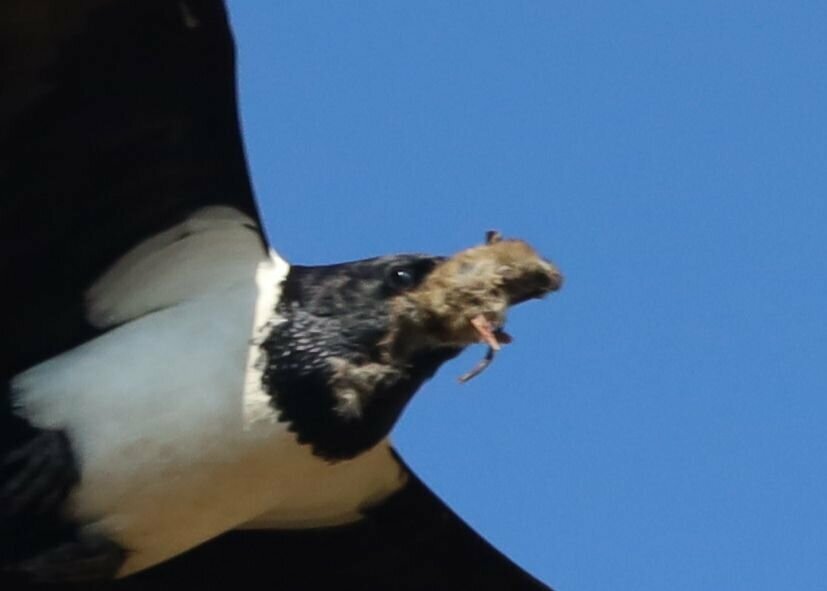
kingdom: Animalia
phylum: Chordata
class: Aves
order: Passeriformes
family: Corvidae
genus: Corvus
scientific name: Corvus albus
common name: Pied crow
